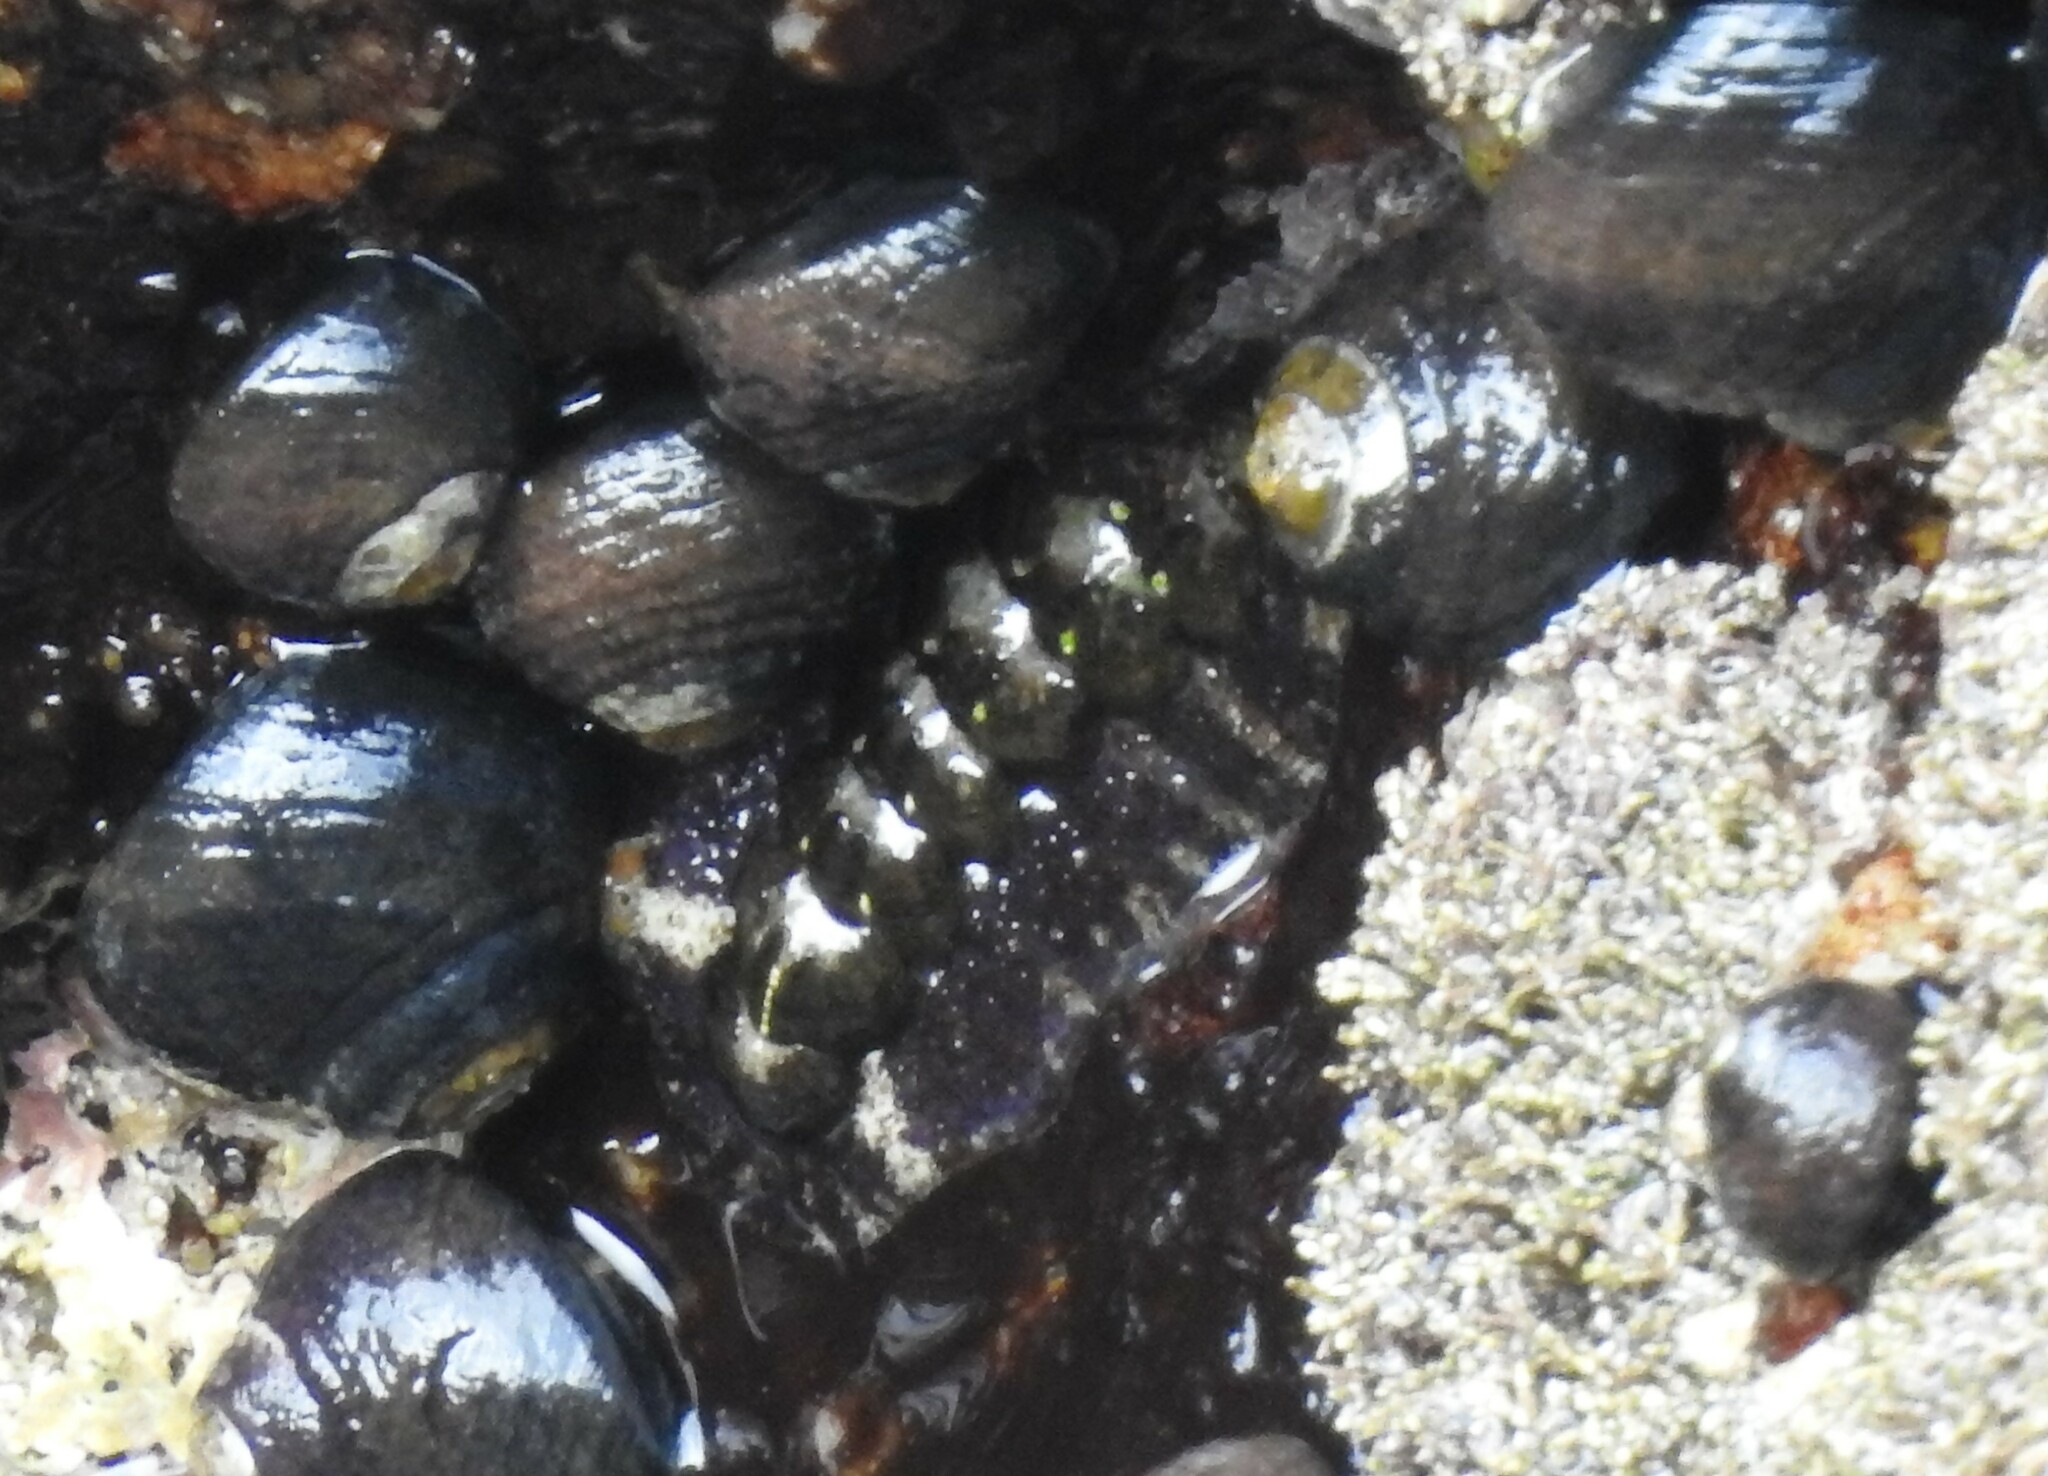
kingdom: Animalia
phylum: Mollusca
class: Polyplacophora
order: Chitonida
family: Tonicellidae
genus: Nuttallina
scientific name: Nuttallina californica
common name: California nuttall chiton
